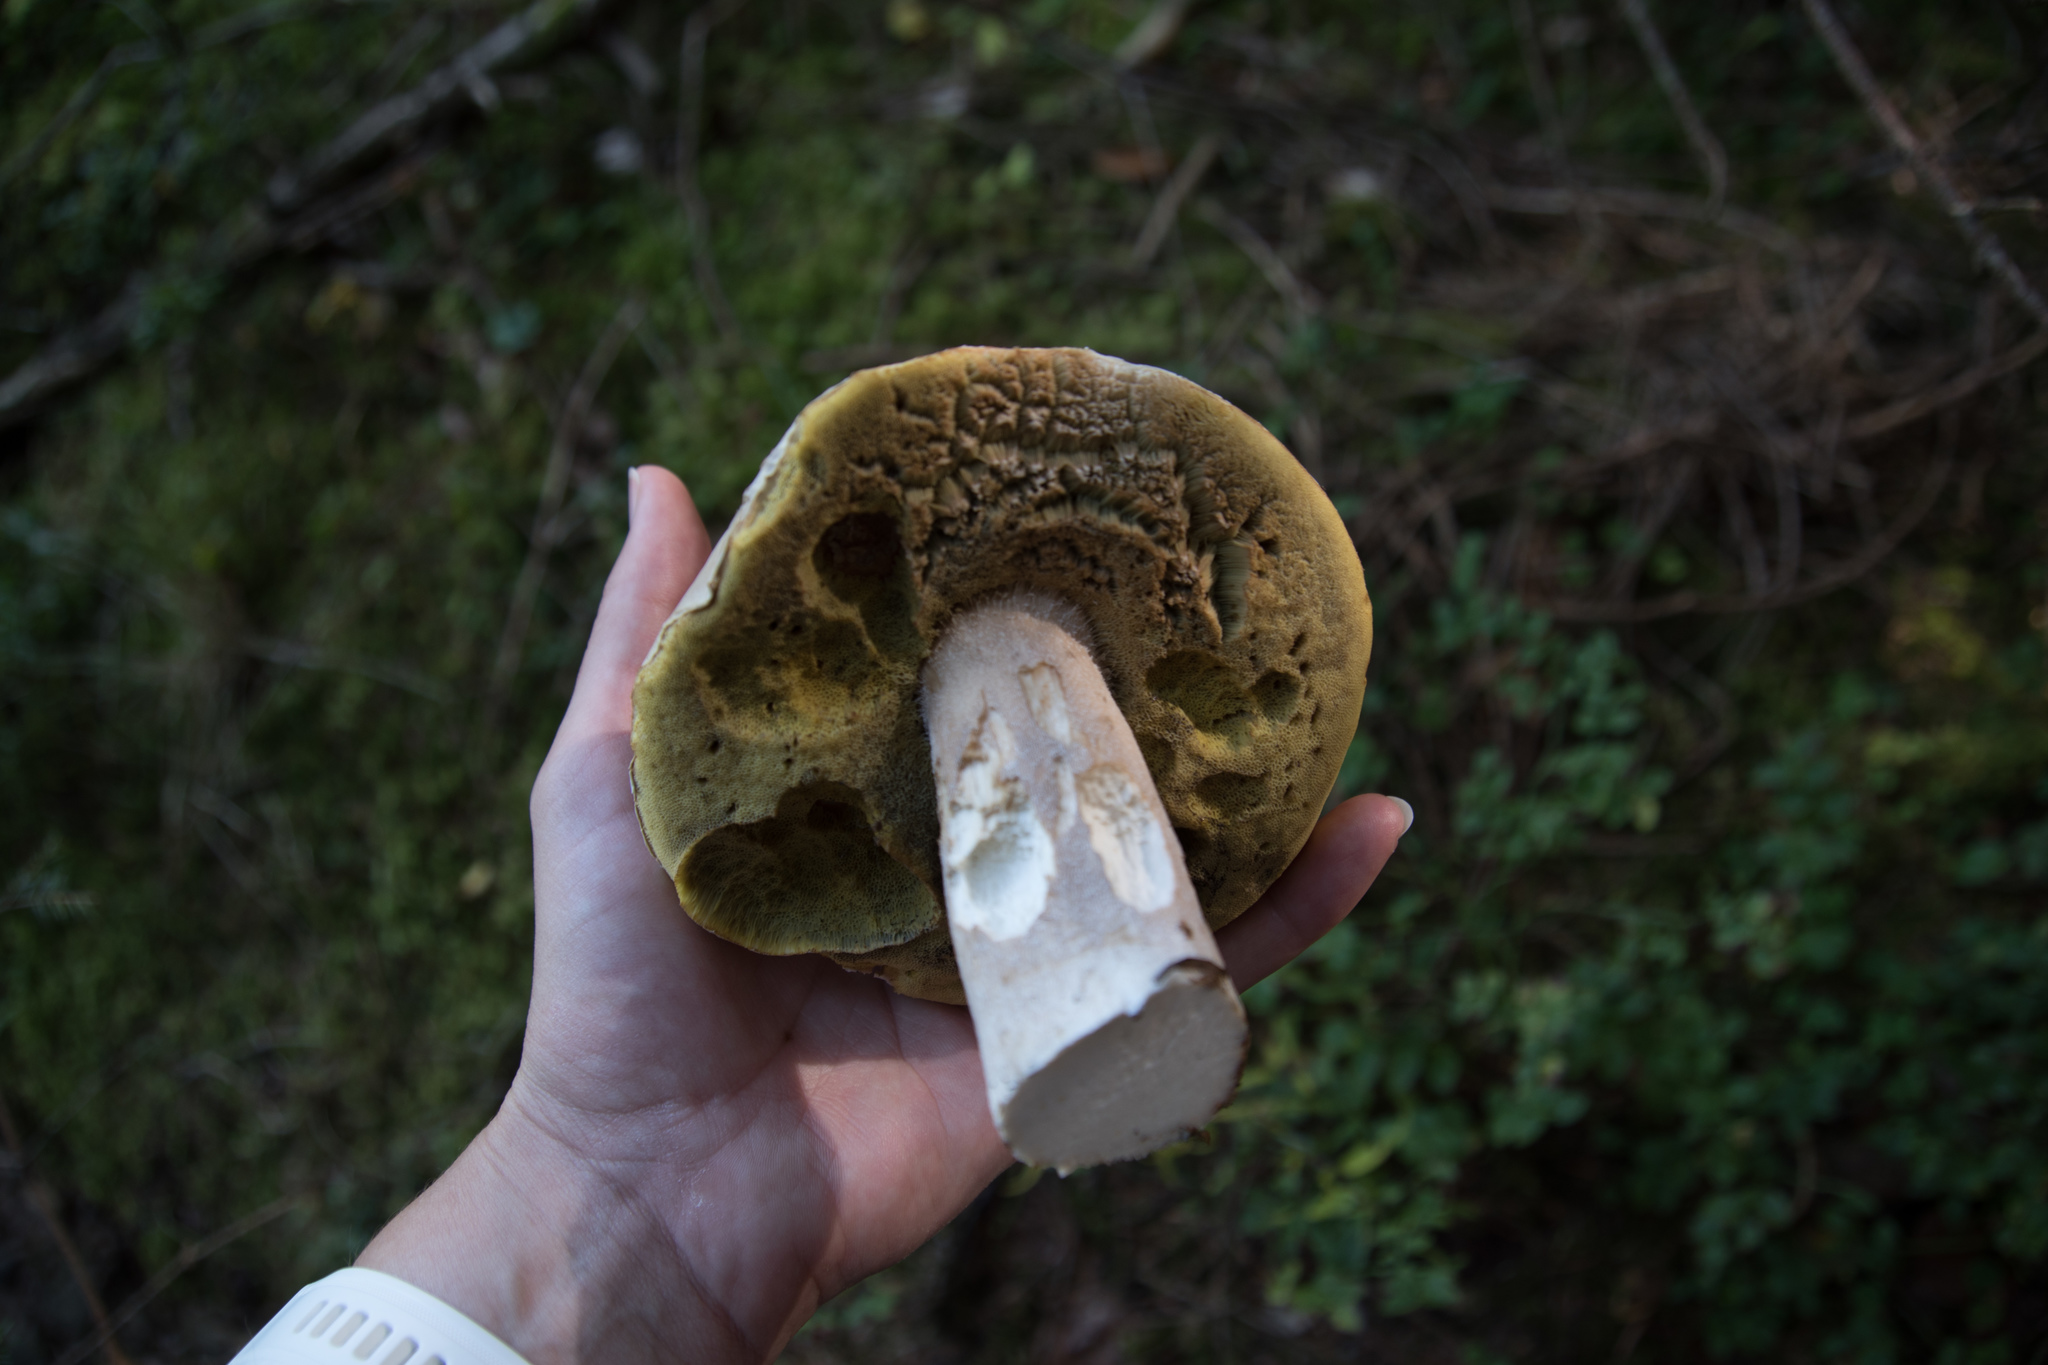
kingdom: Fungi
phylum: Basidiomycota
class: Agaricomycetes
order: Boletales
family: Boletaceae
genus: Boletus
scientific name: Boletus edulis
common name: Cep
